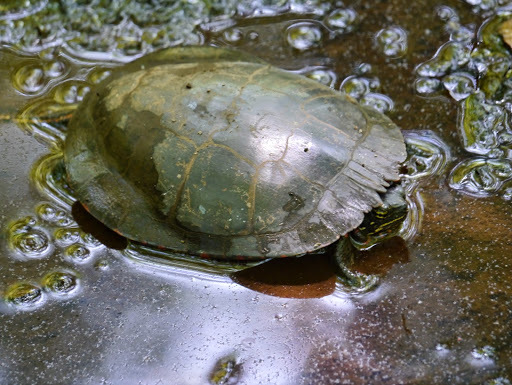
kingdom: Animalia
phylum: Chordata
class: Testudines
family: Emydidae
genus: Chrysemys
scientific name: Chrysemys picta
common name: Painted turtle
